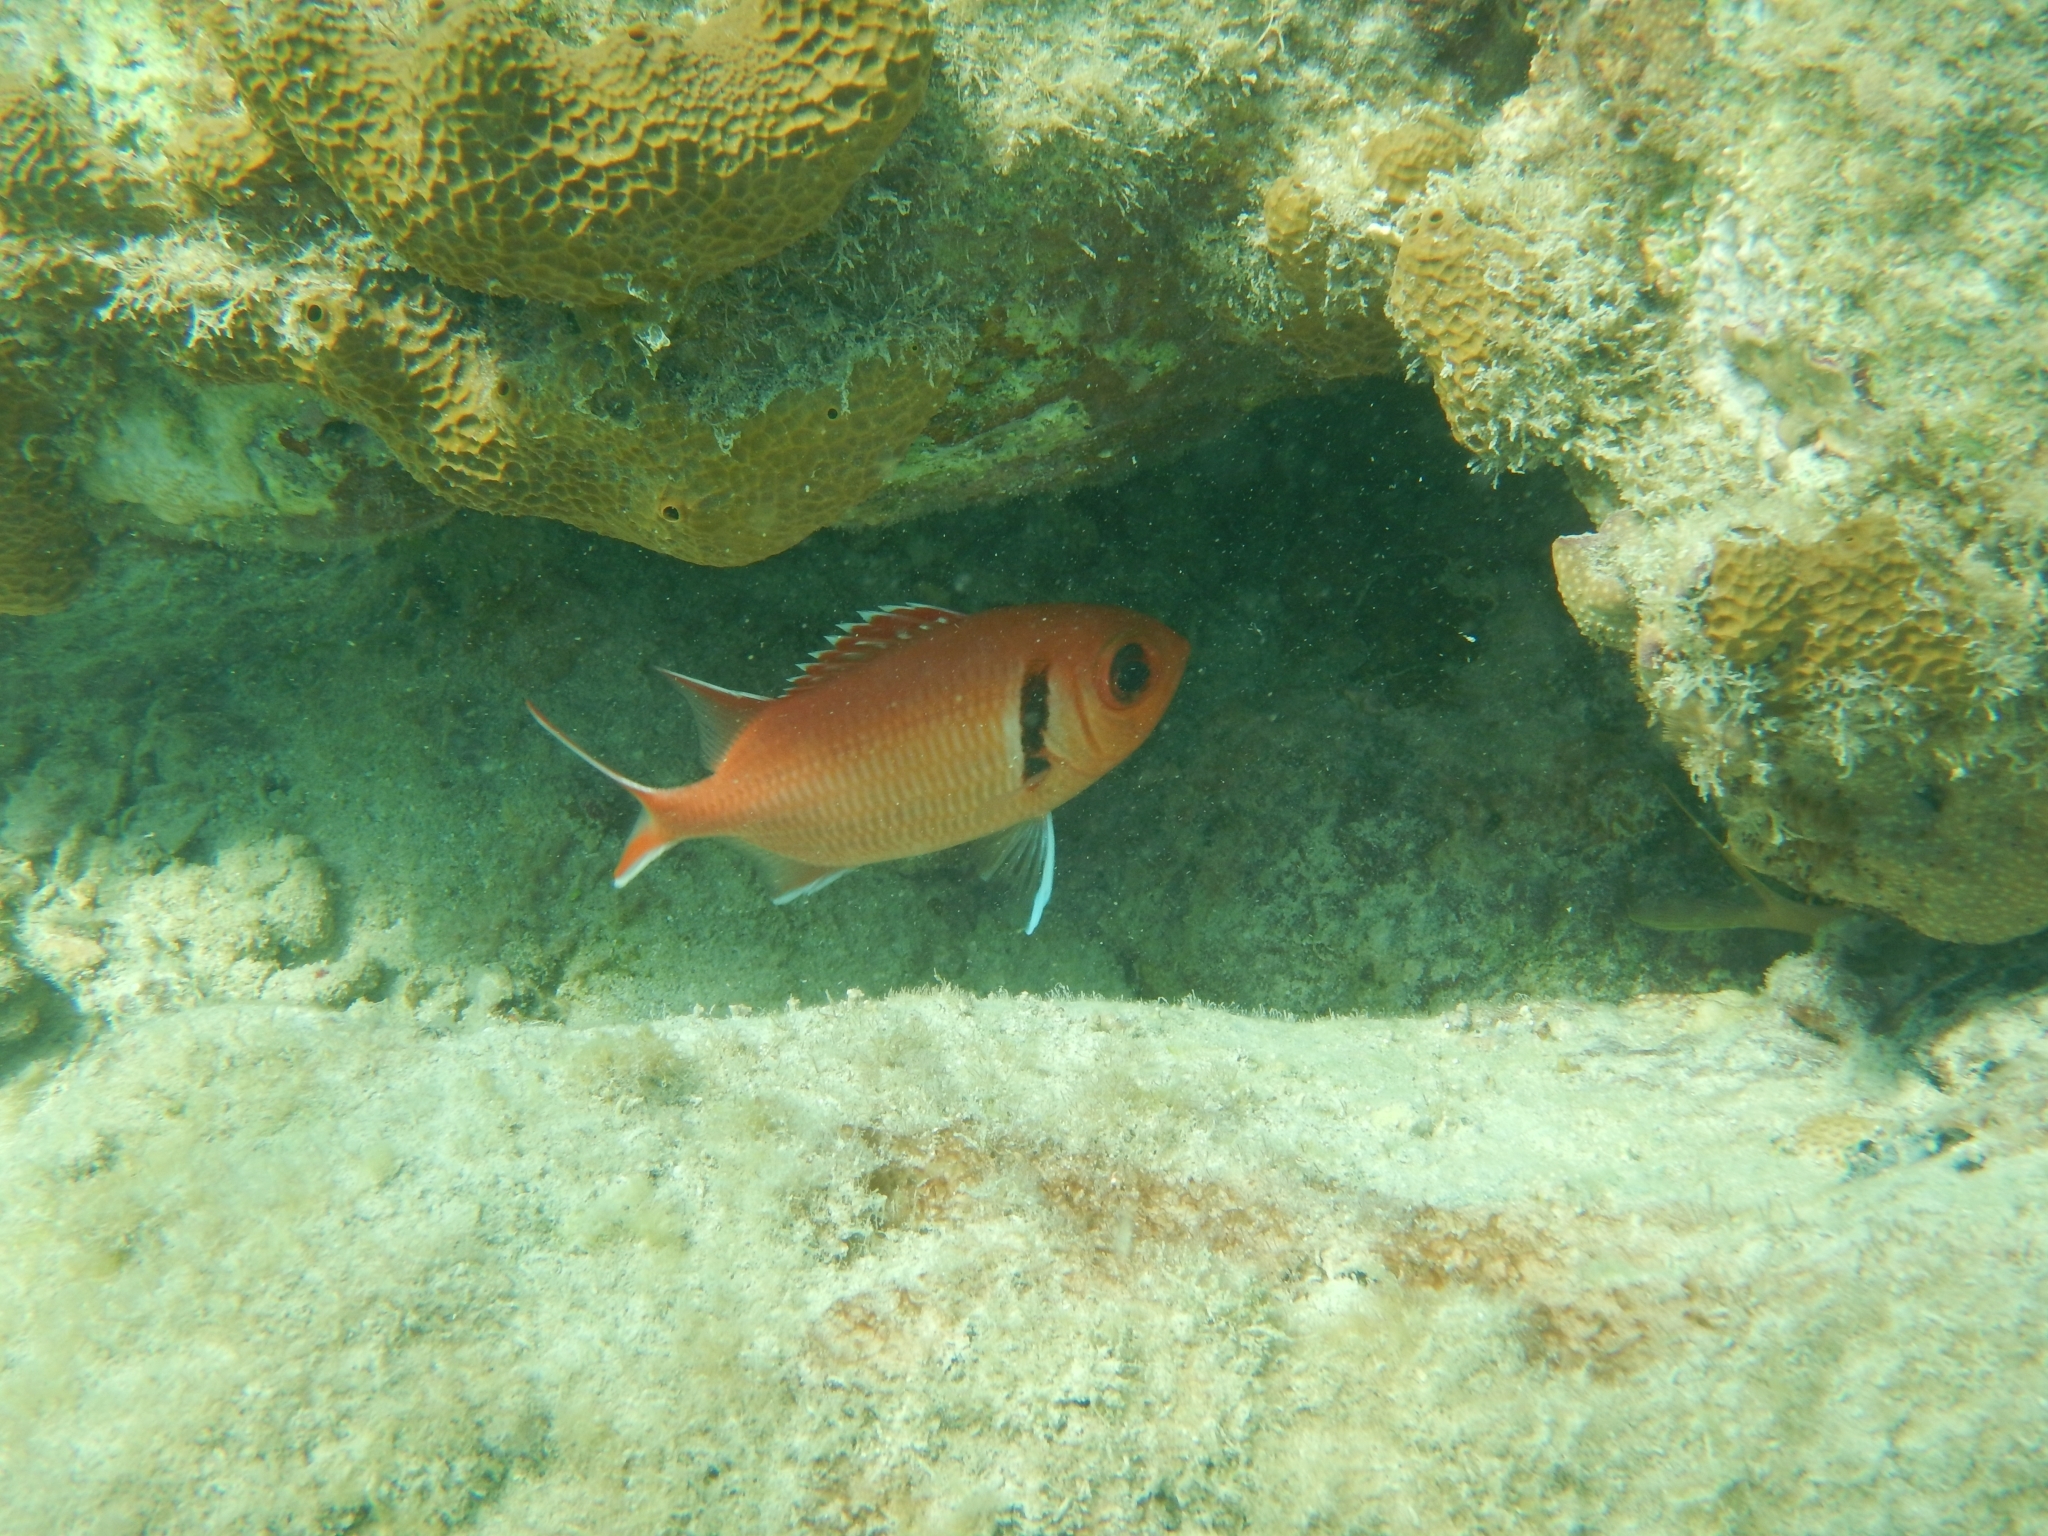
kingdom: Animalia
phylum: Chordata
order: Beryciformes
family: Holocentridae
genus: Myripristis
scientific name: Myripristis jacobus
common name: Blackbar soldierfish
